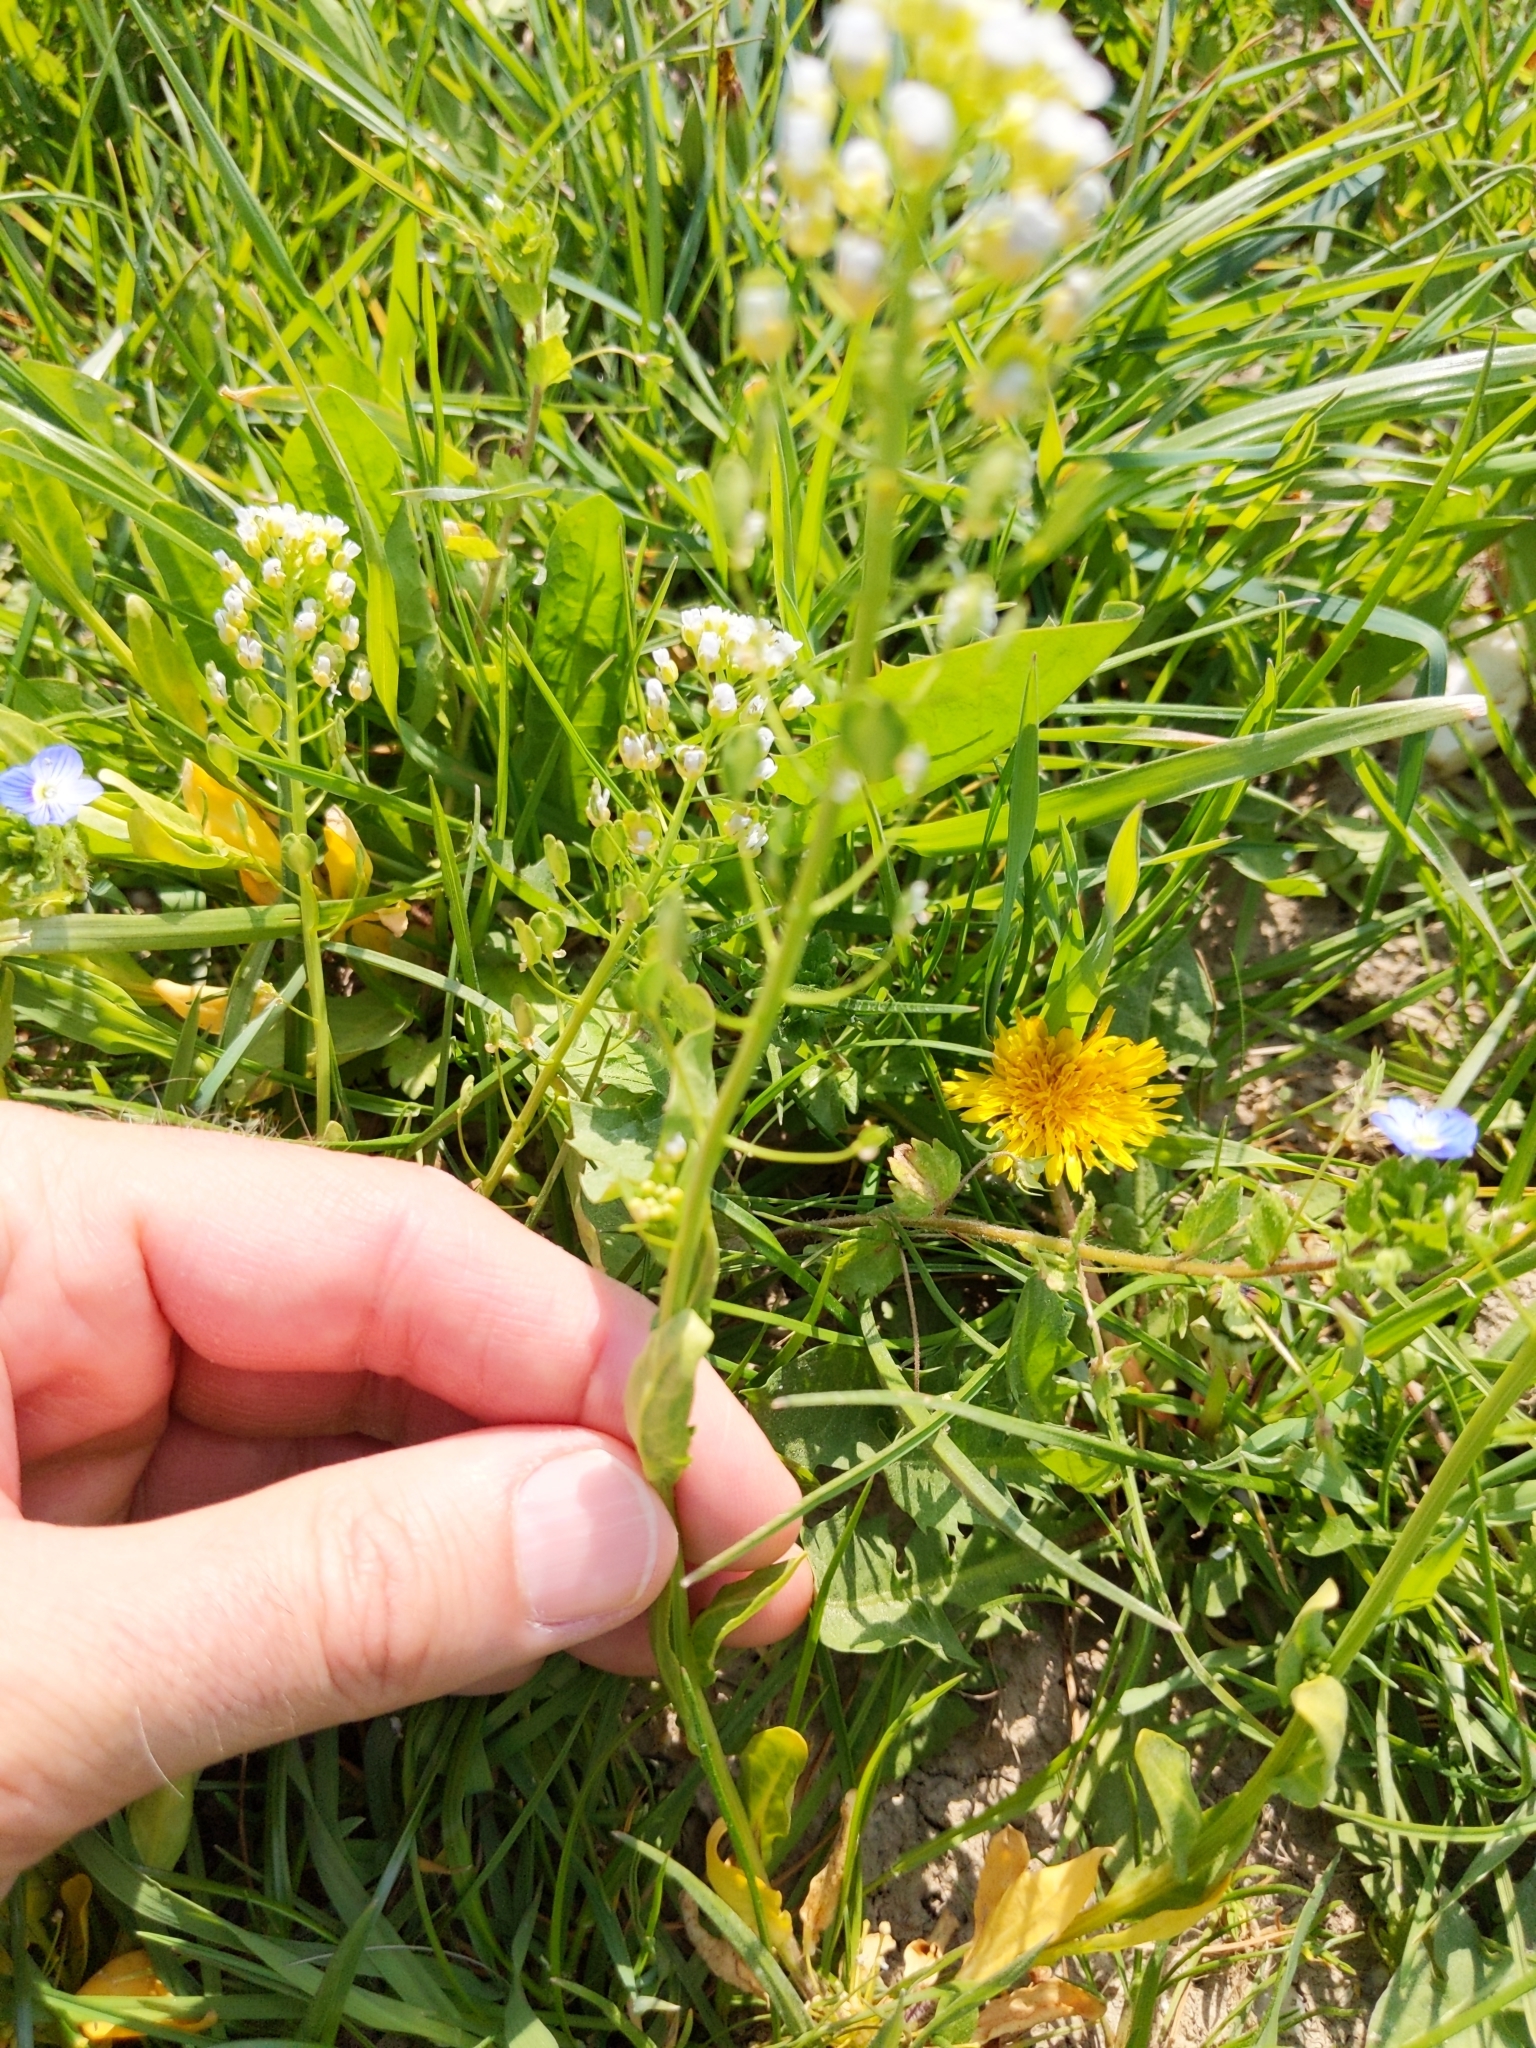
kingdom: Plantae
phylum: Tracheophyta
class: Magnoliopsida
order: Brassicales
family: Brassicaceae
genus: Thlaspi
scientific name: Thlaspi arvense
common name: Field pennycress
